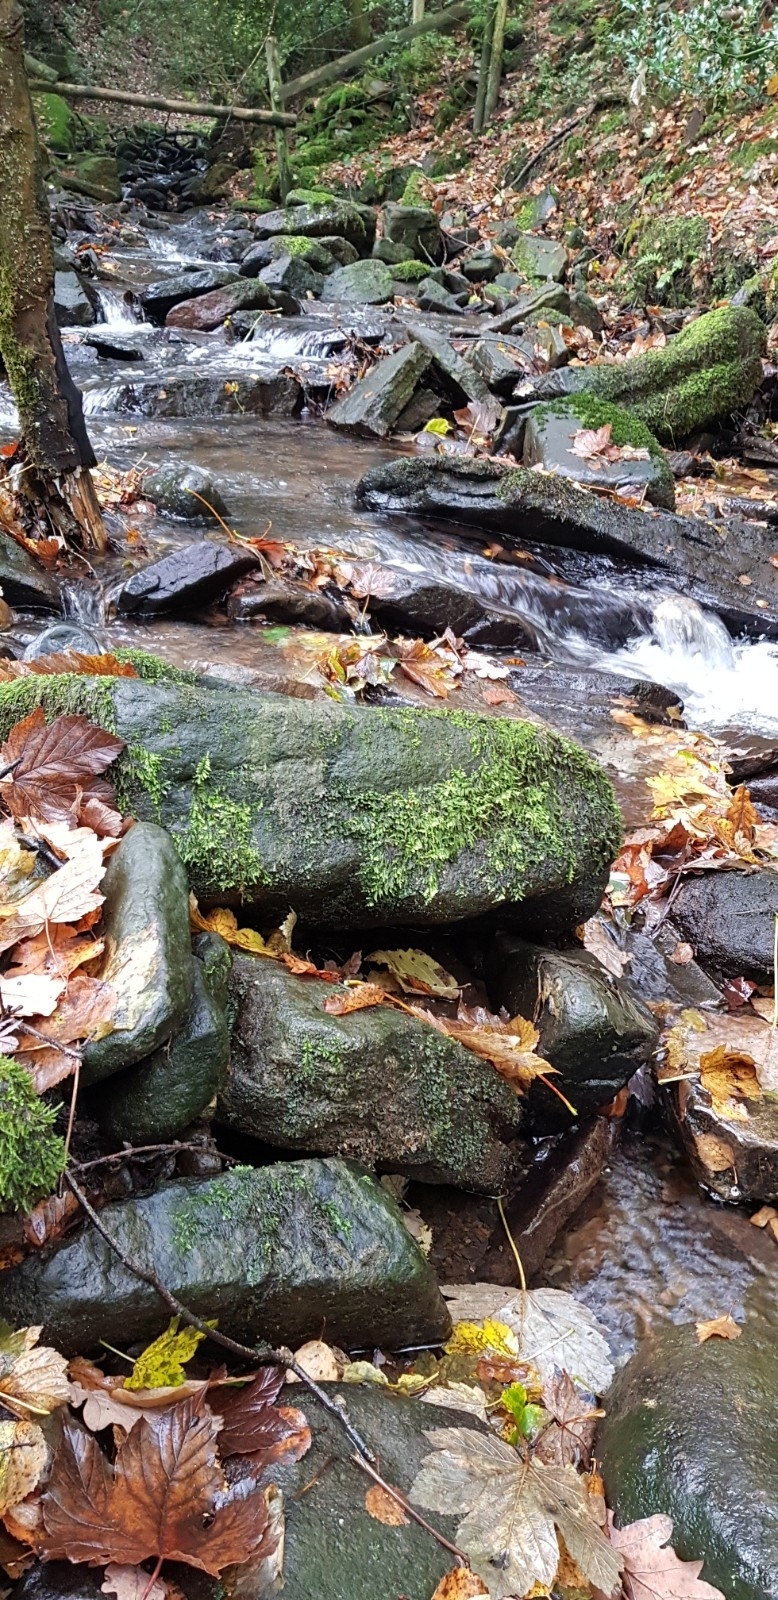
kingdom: Plantae
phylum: Bryophyta
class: Bryopsida
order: Hypnales
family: Myuriaceae
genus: Hyocomium
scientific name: Hyocomium armoricum
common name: Flagellate feather-moss
